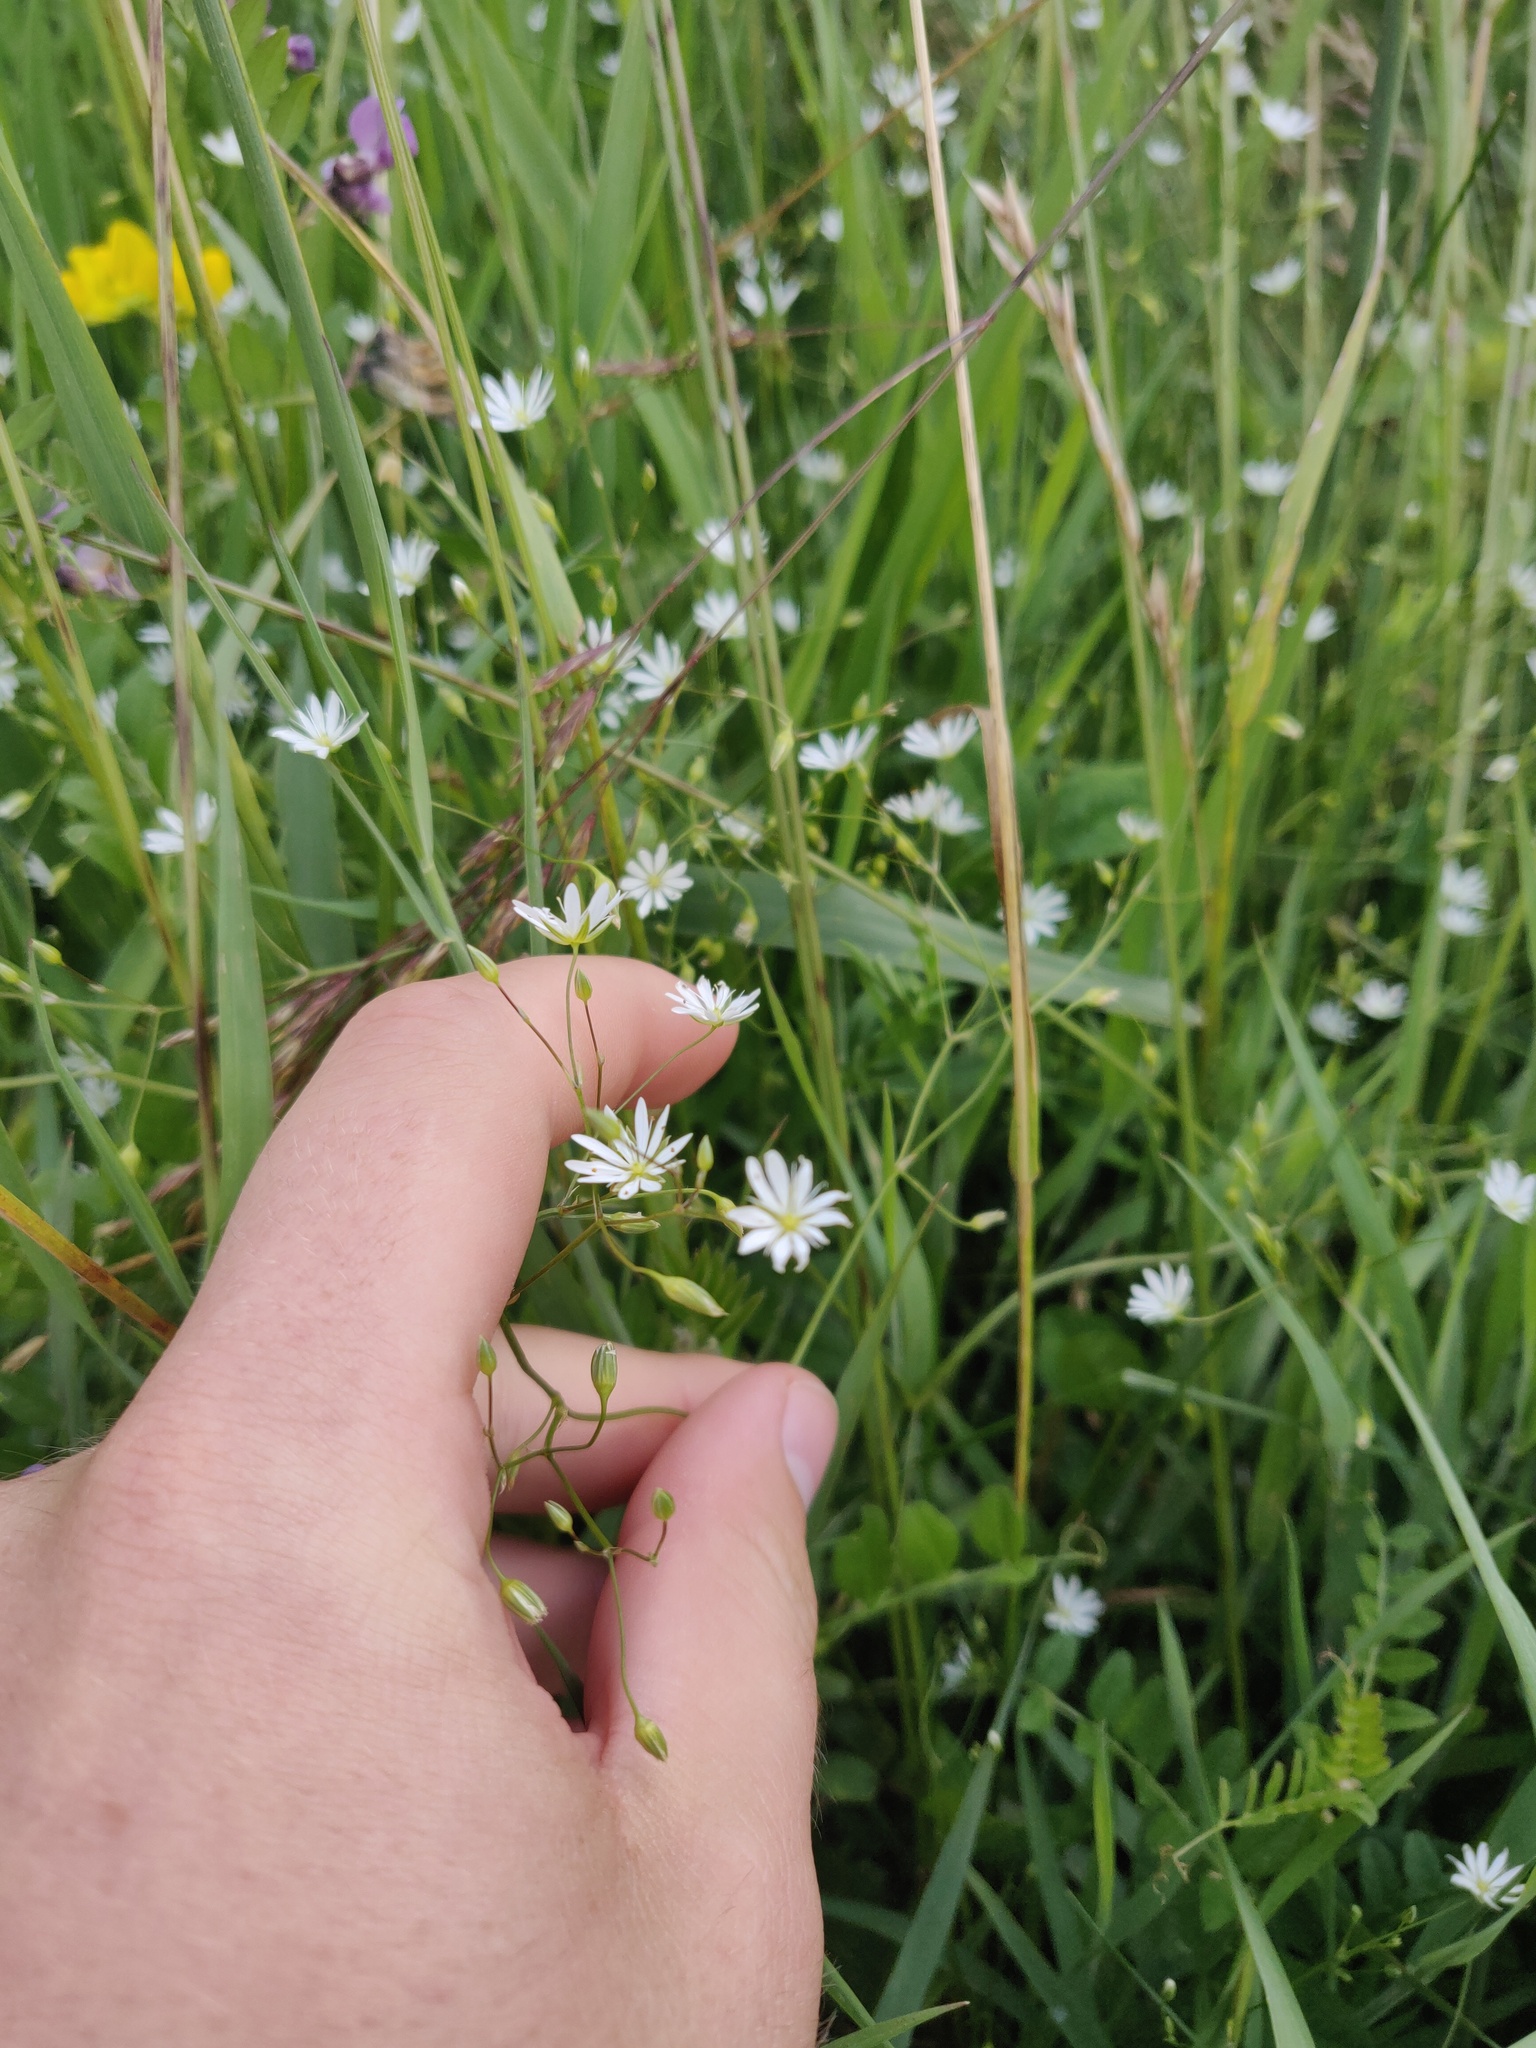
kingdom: Plantae
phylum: Tracheophyta
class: Magnoliopsida
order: Caryophyllales
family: Caryophyllaceae
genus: Stellaria
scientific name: Stellaria graminea
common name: Grass-like starwort
